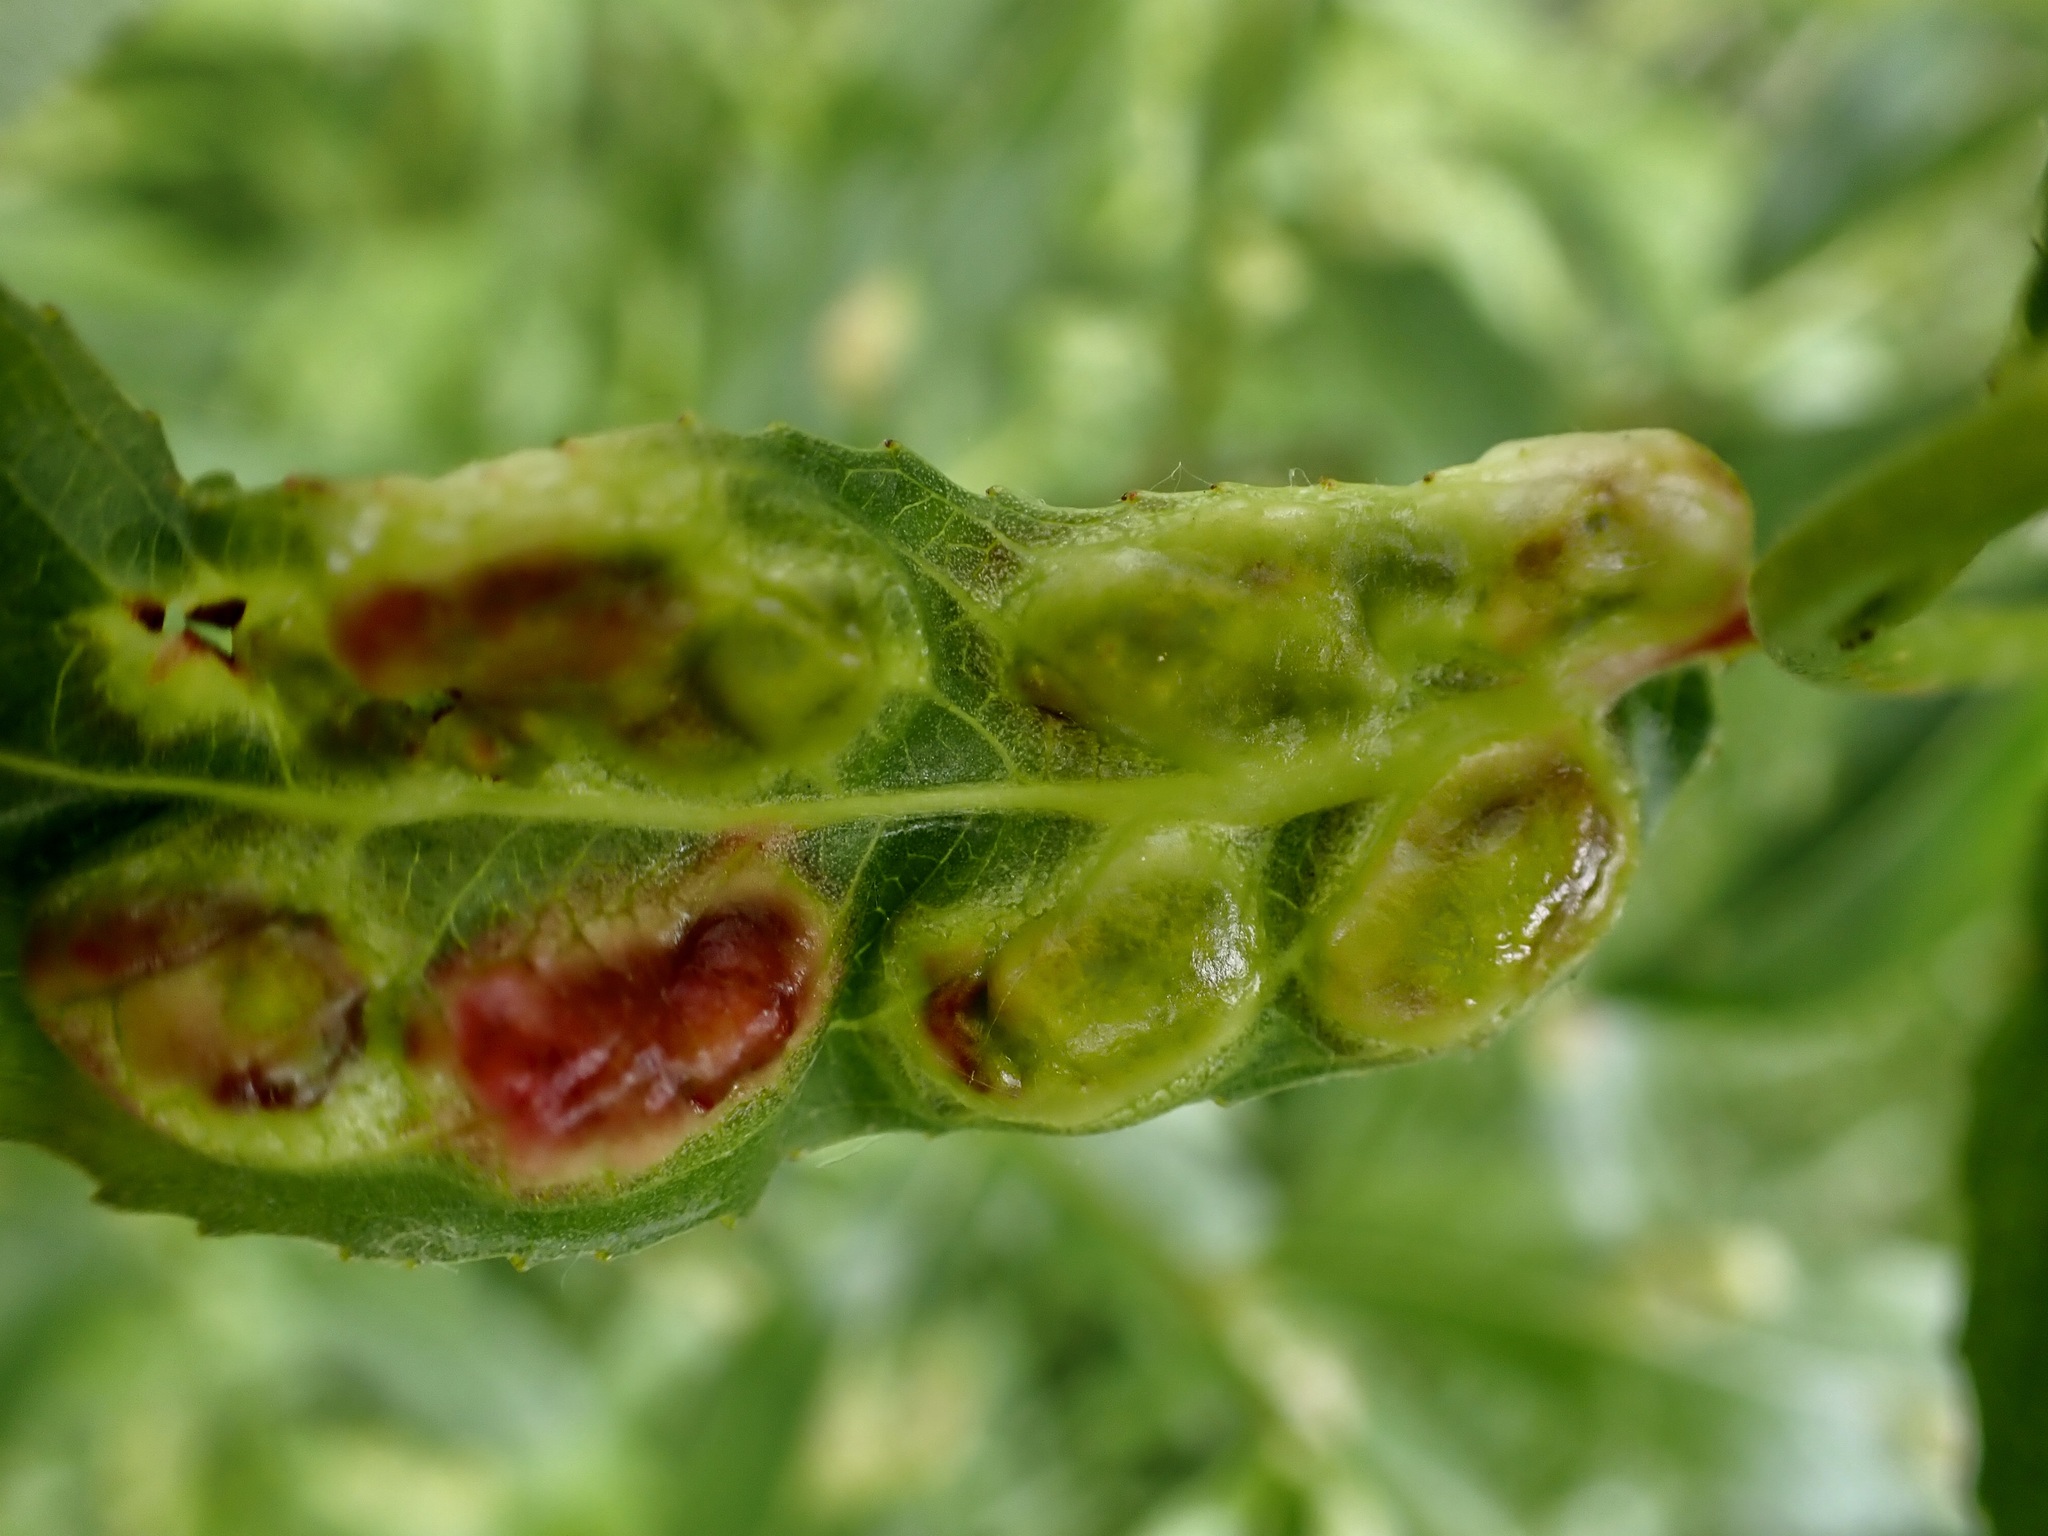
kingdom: Animalia
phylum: Arthropoda
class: Insecta
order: Hymenoptera
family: Tenthredinidae
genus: Pontania
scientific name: Pontania proxima
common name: Common sawfly
